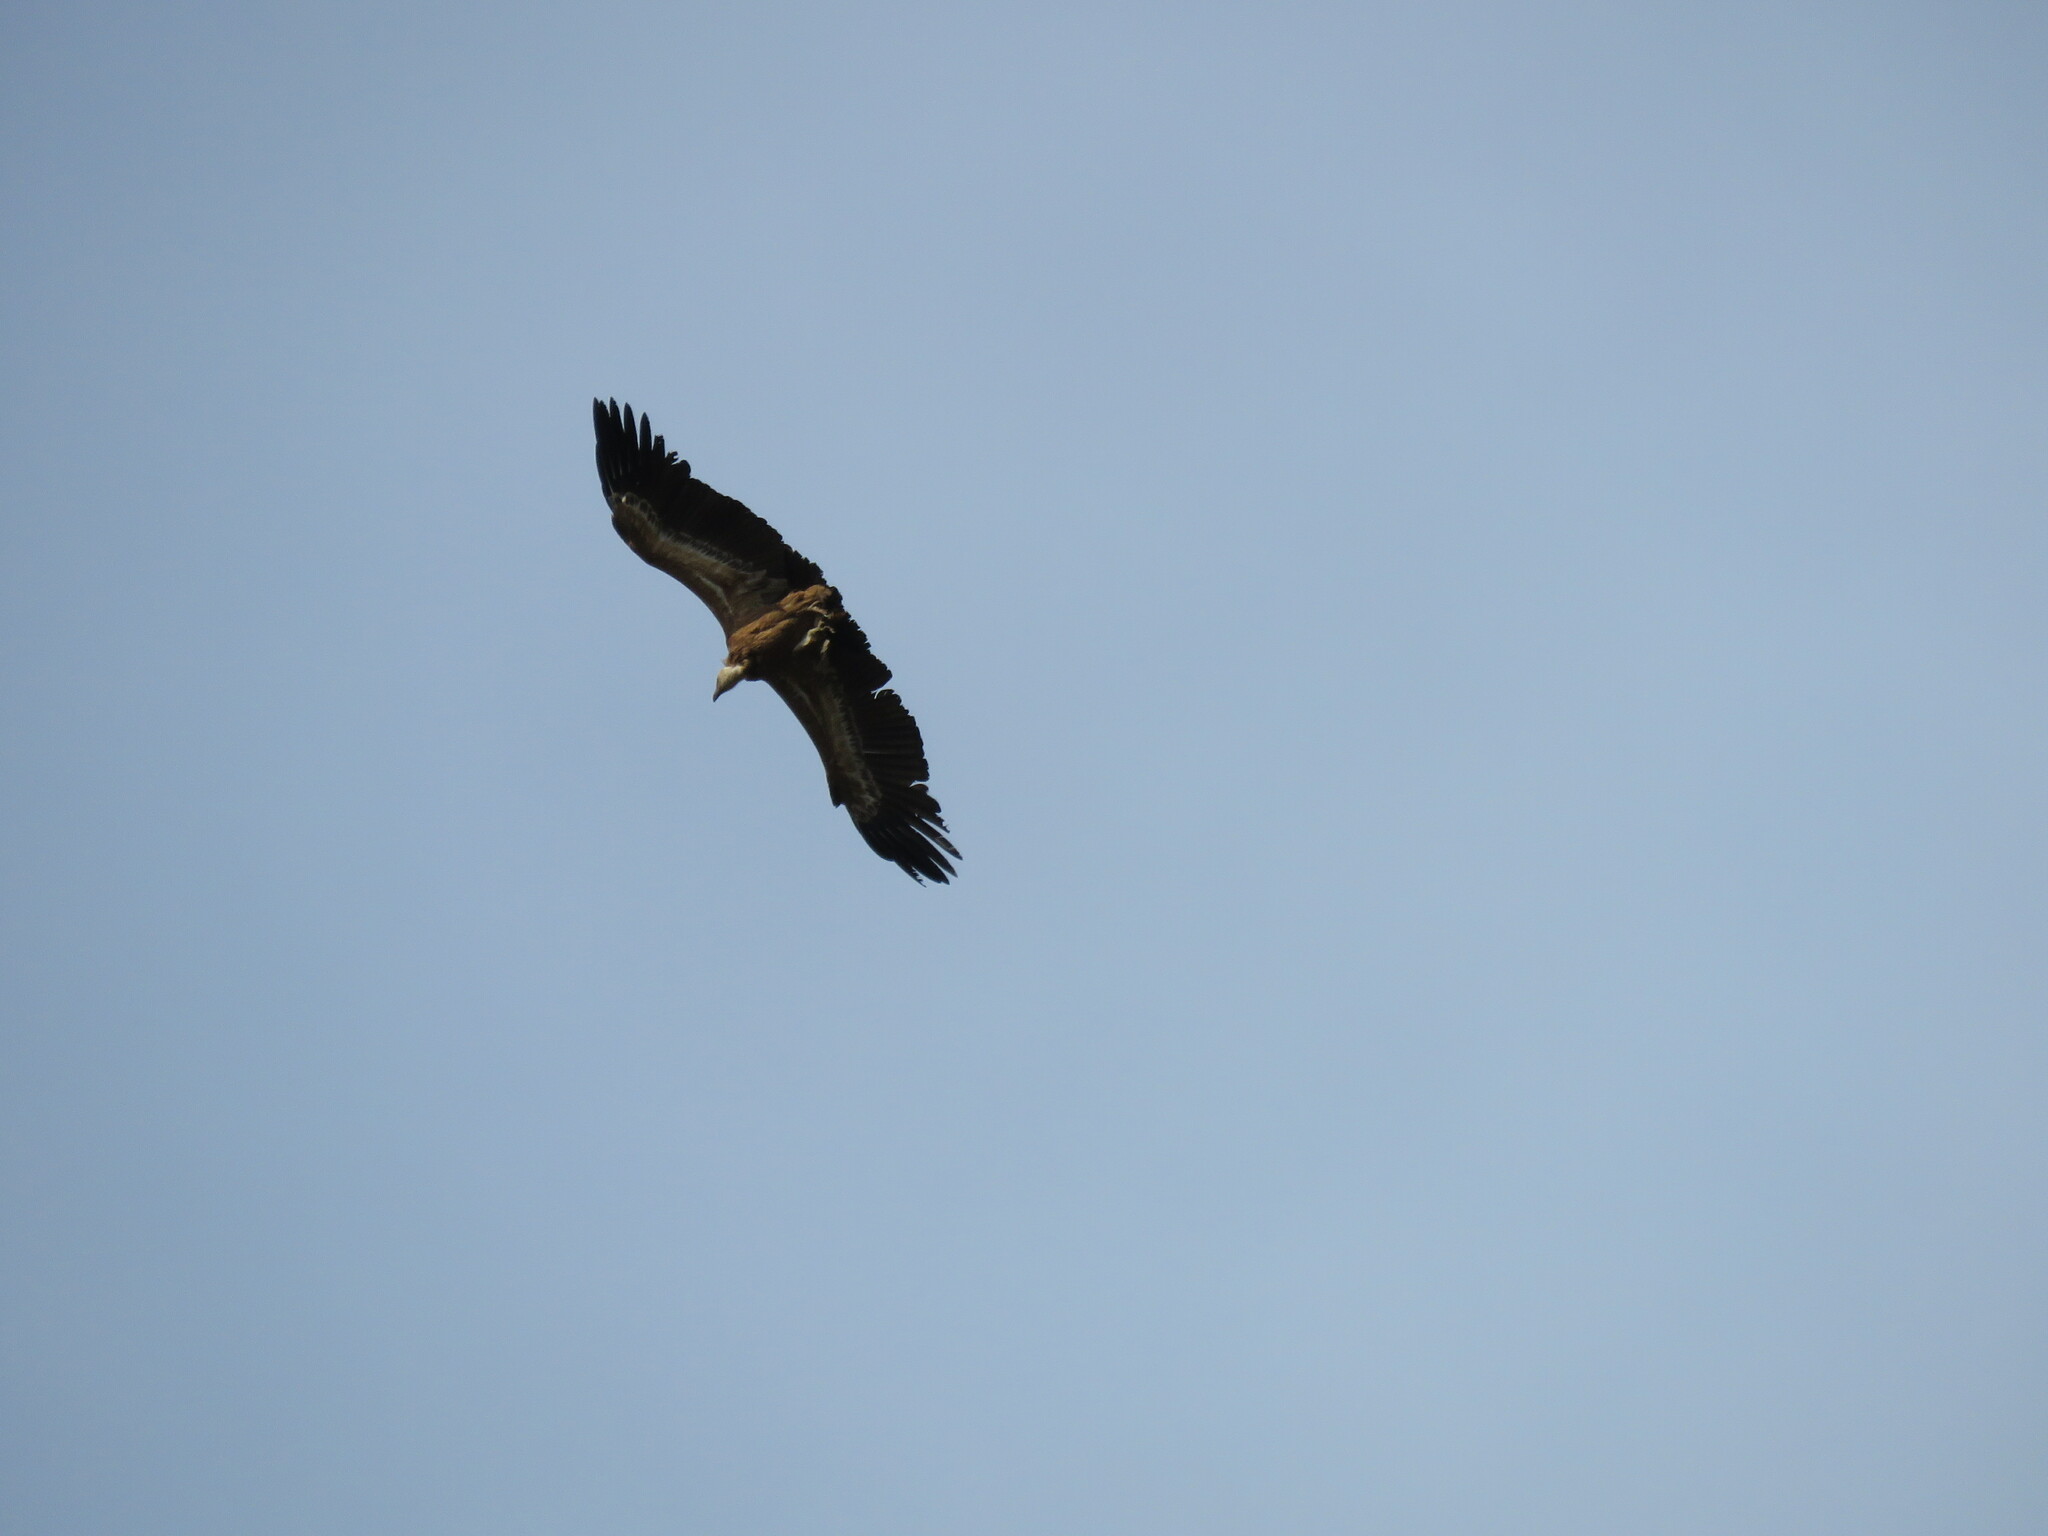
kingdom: Animalia
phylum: Chordata
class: Aves
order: Accipitriformes
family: Accipitridae
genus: Gyps
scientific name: Gyps fulvus
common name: Griffon vulture
